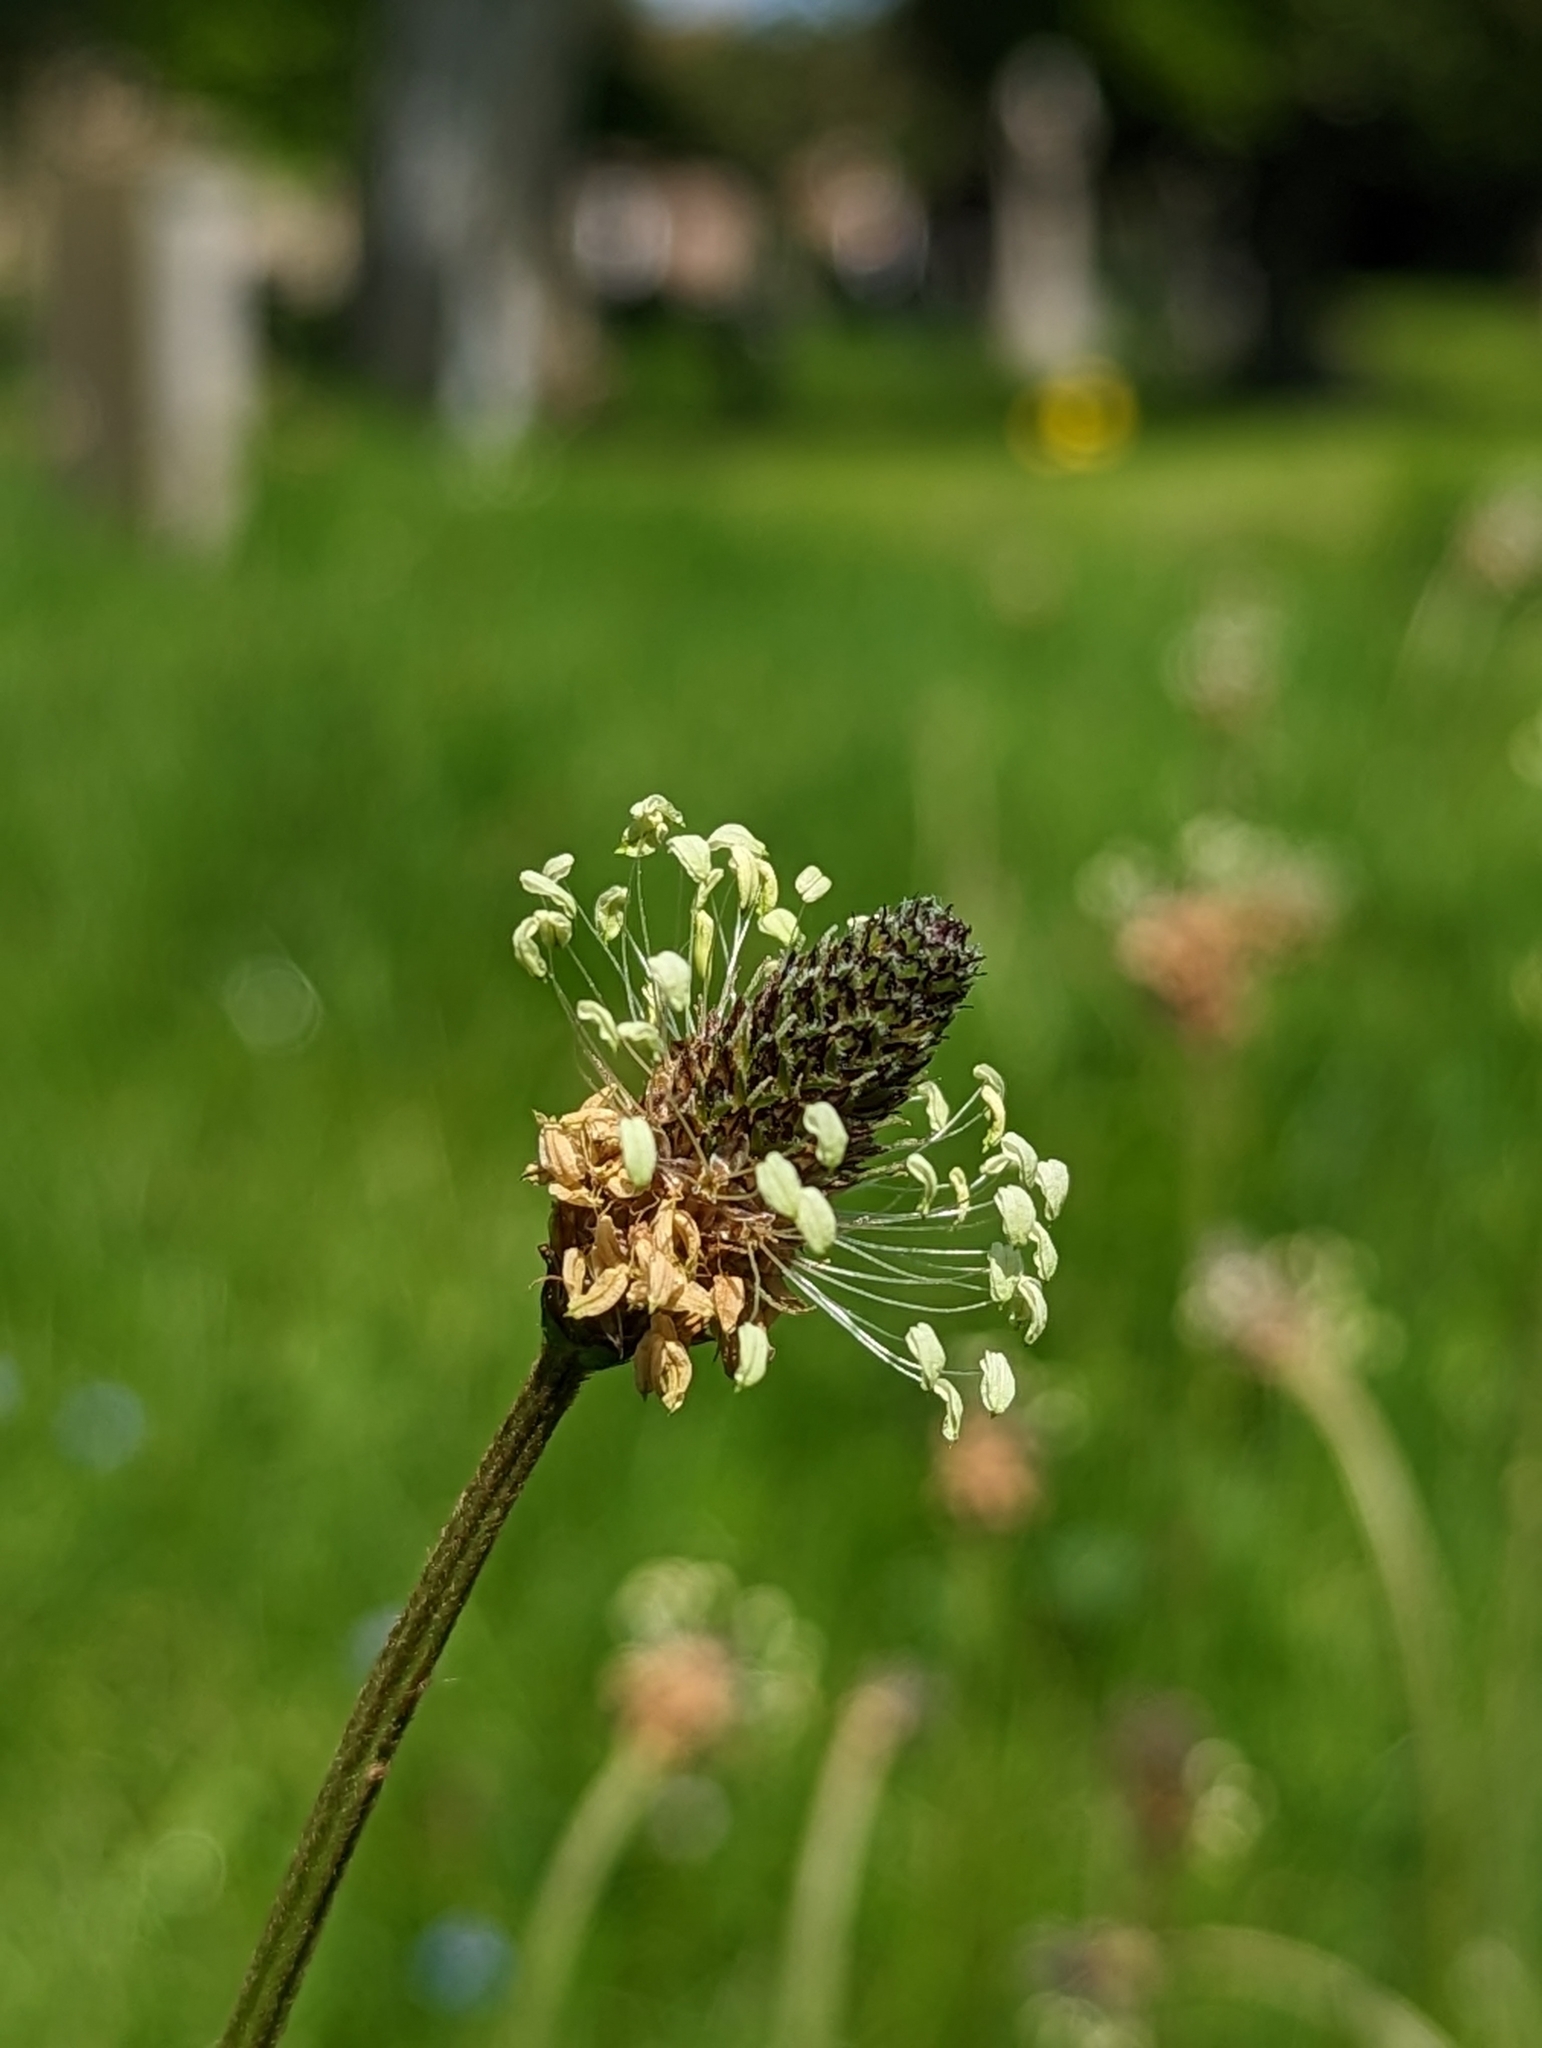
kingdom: Plantae
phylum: Tracheophyta
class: Magnoliopsida
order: Lamiales
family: Plantaginaceae
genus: Plantago
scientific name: Plantago lanceolata
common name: Ribwort plantain
